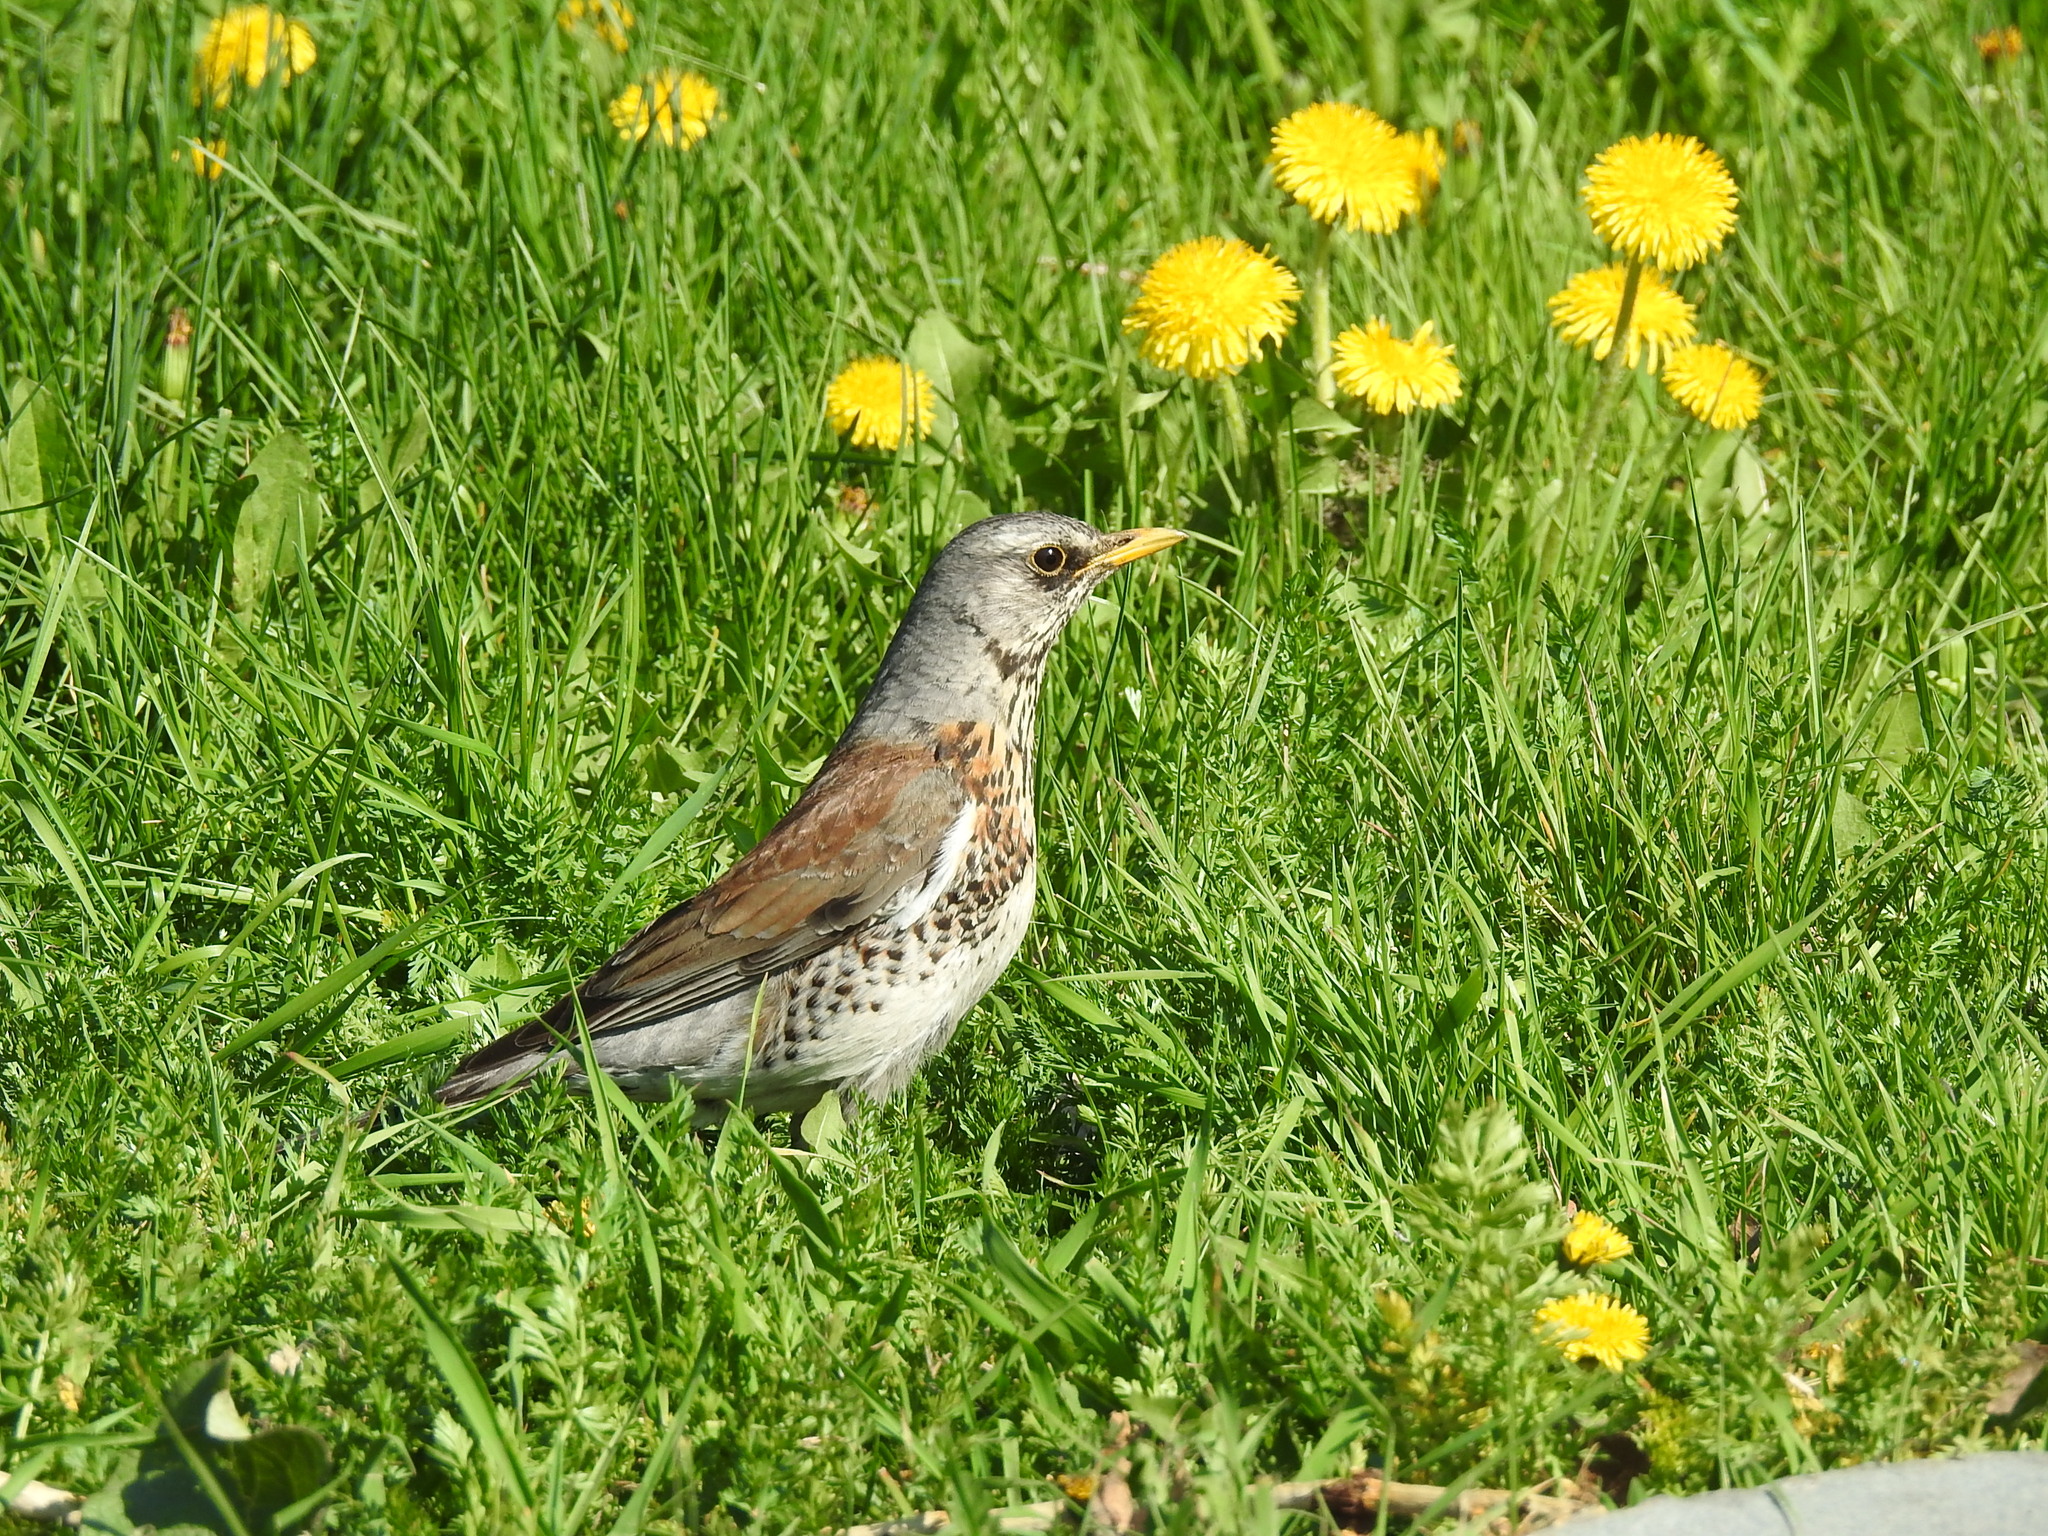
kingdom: Animalia
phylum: Chordata
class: Aves
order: Passeriformes
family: Turdidae
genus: Turdus
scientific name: Turdus pilaris
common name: Fieldfare
